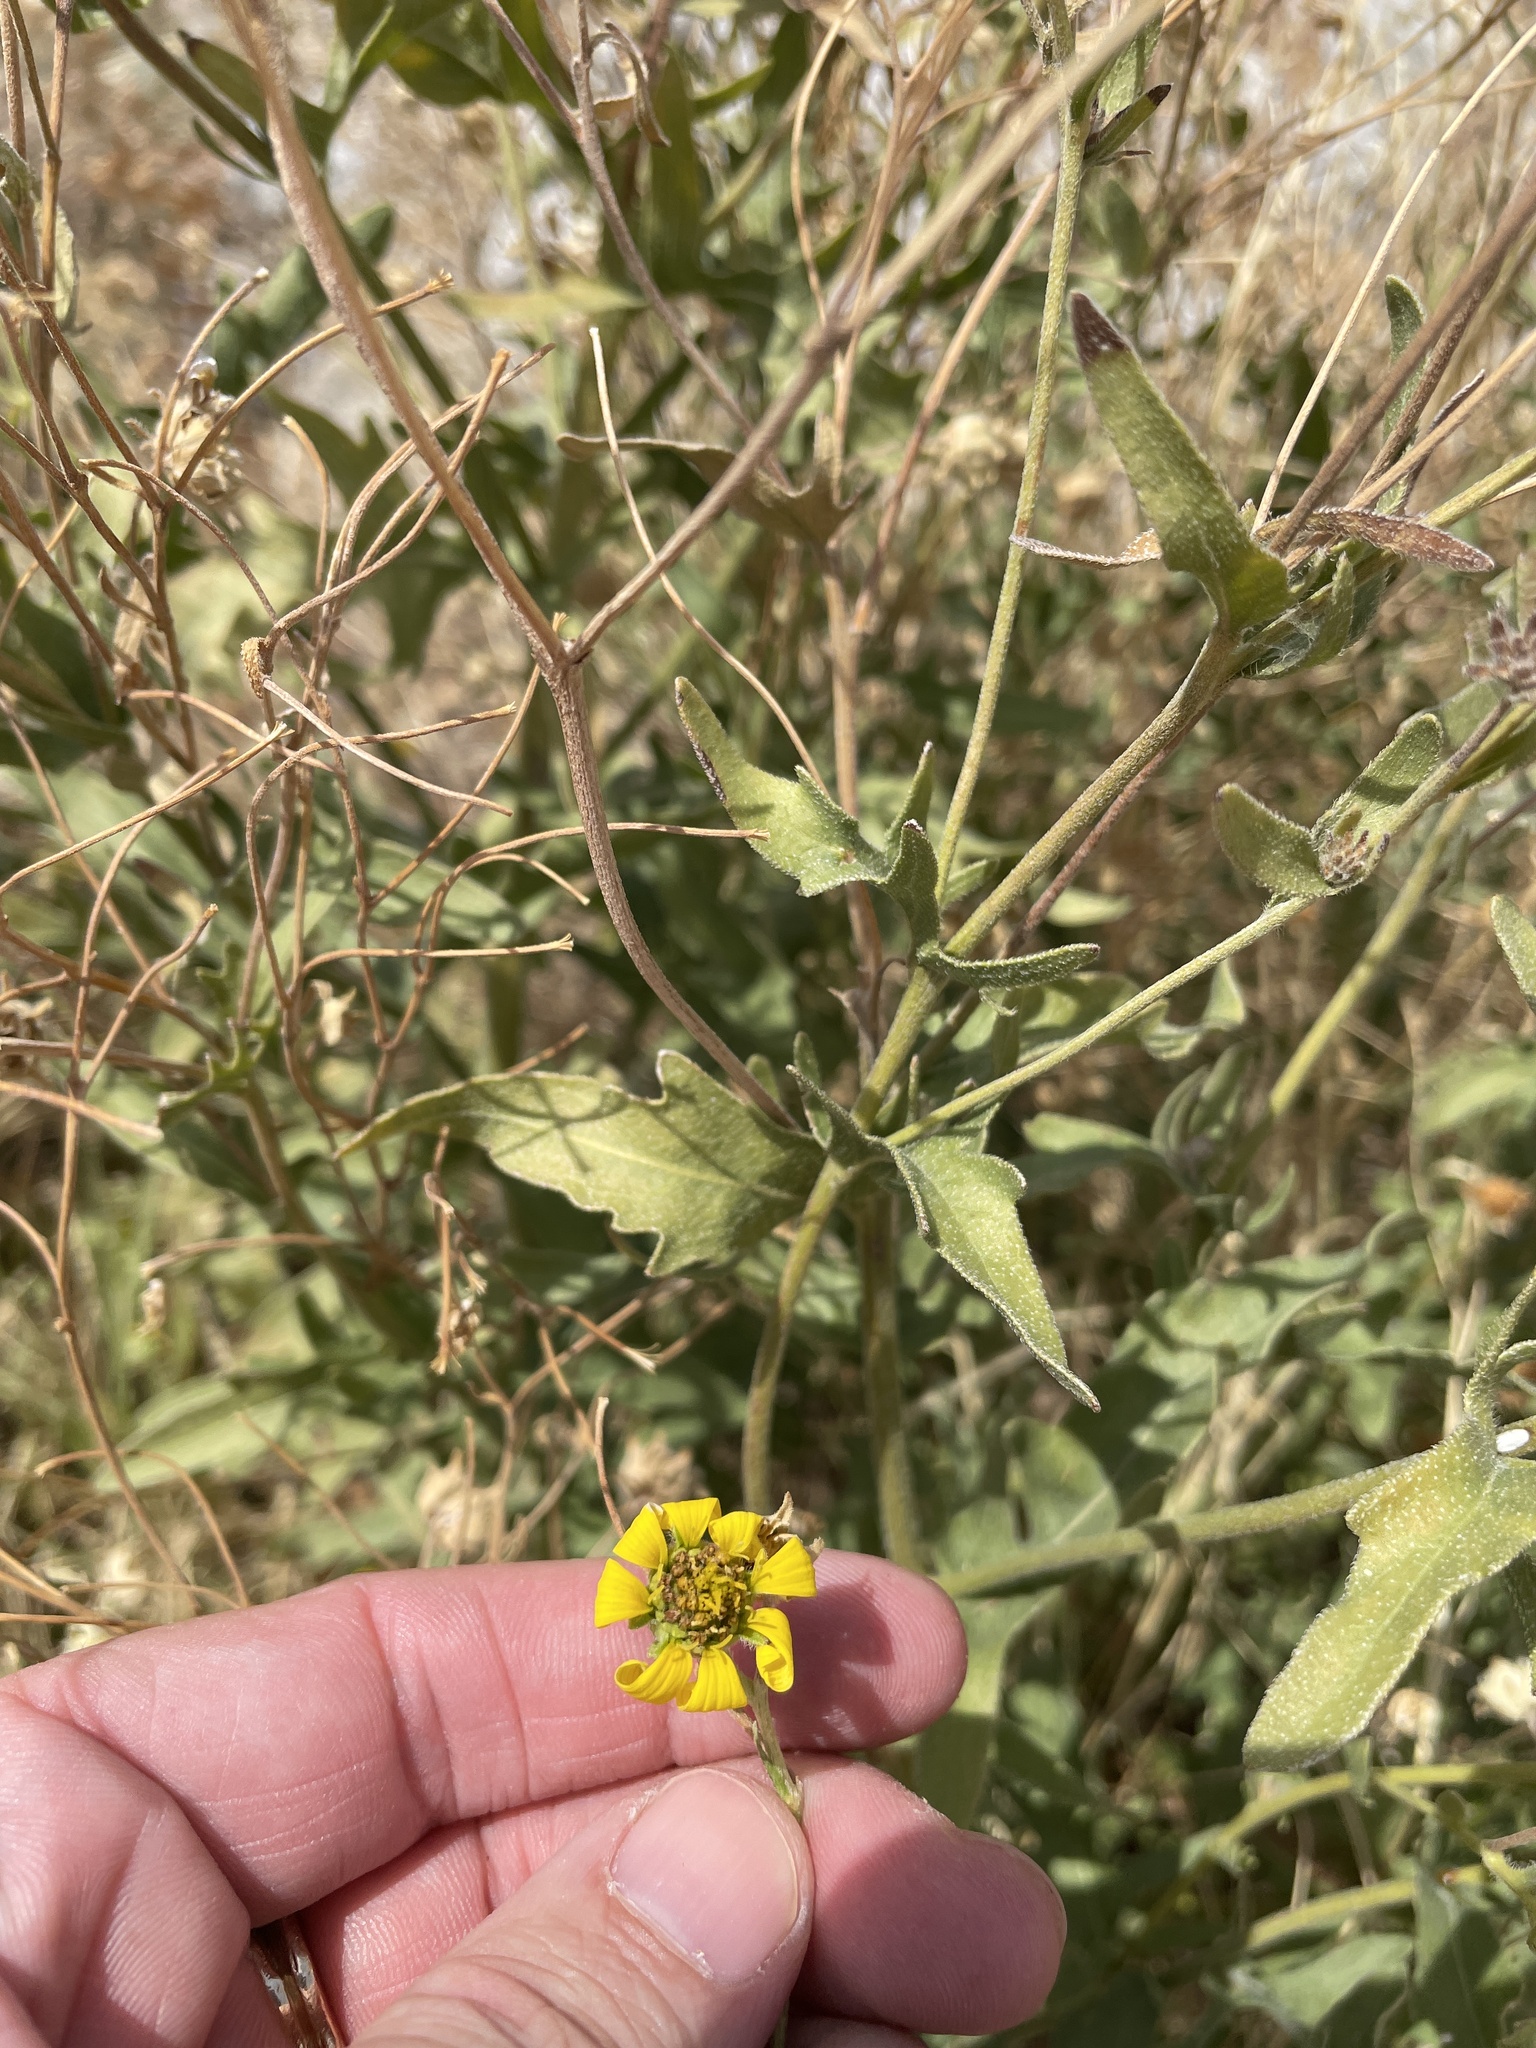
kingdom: Plantae
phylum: Tracheophyta
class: Magnoliopsida
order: Asterales
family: Asteraceae
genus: Engelmannia
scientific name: Engelmannia peristenia
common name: Engelmann's daisy
